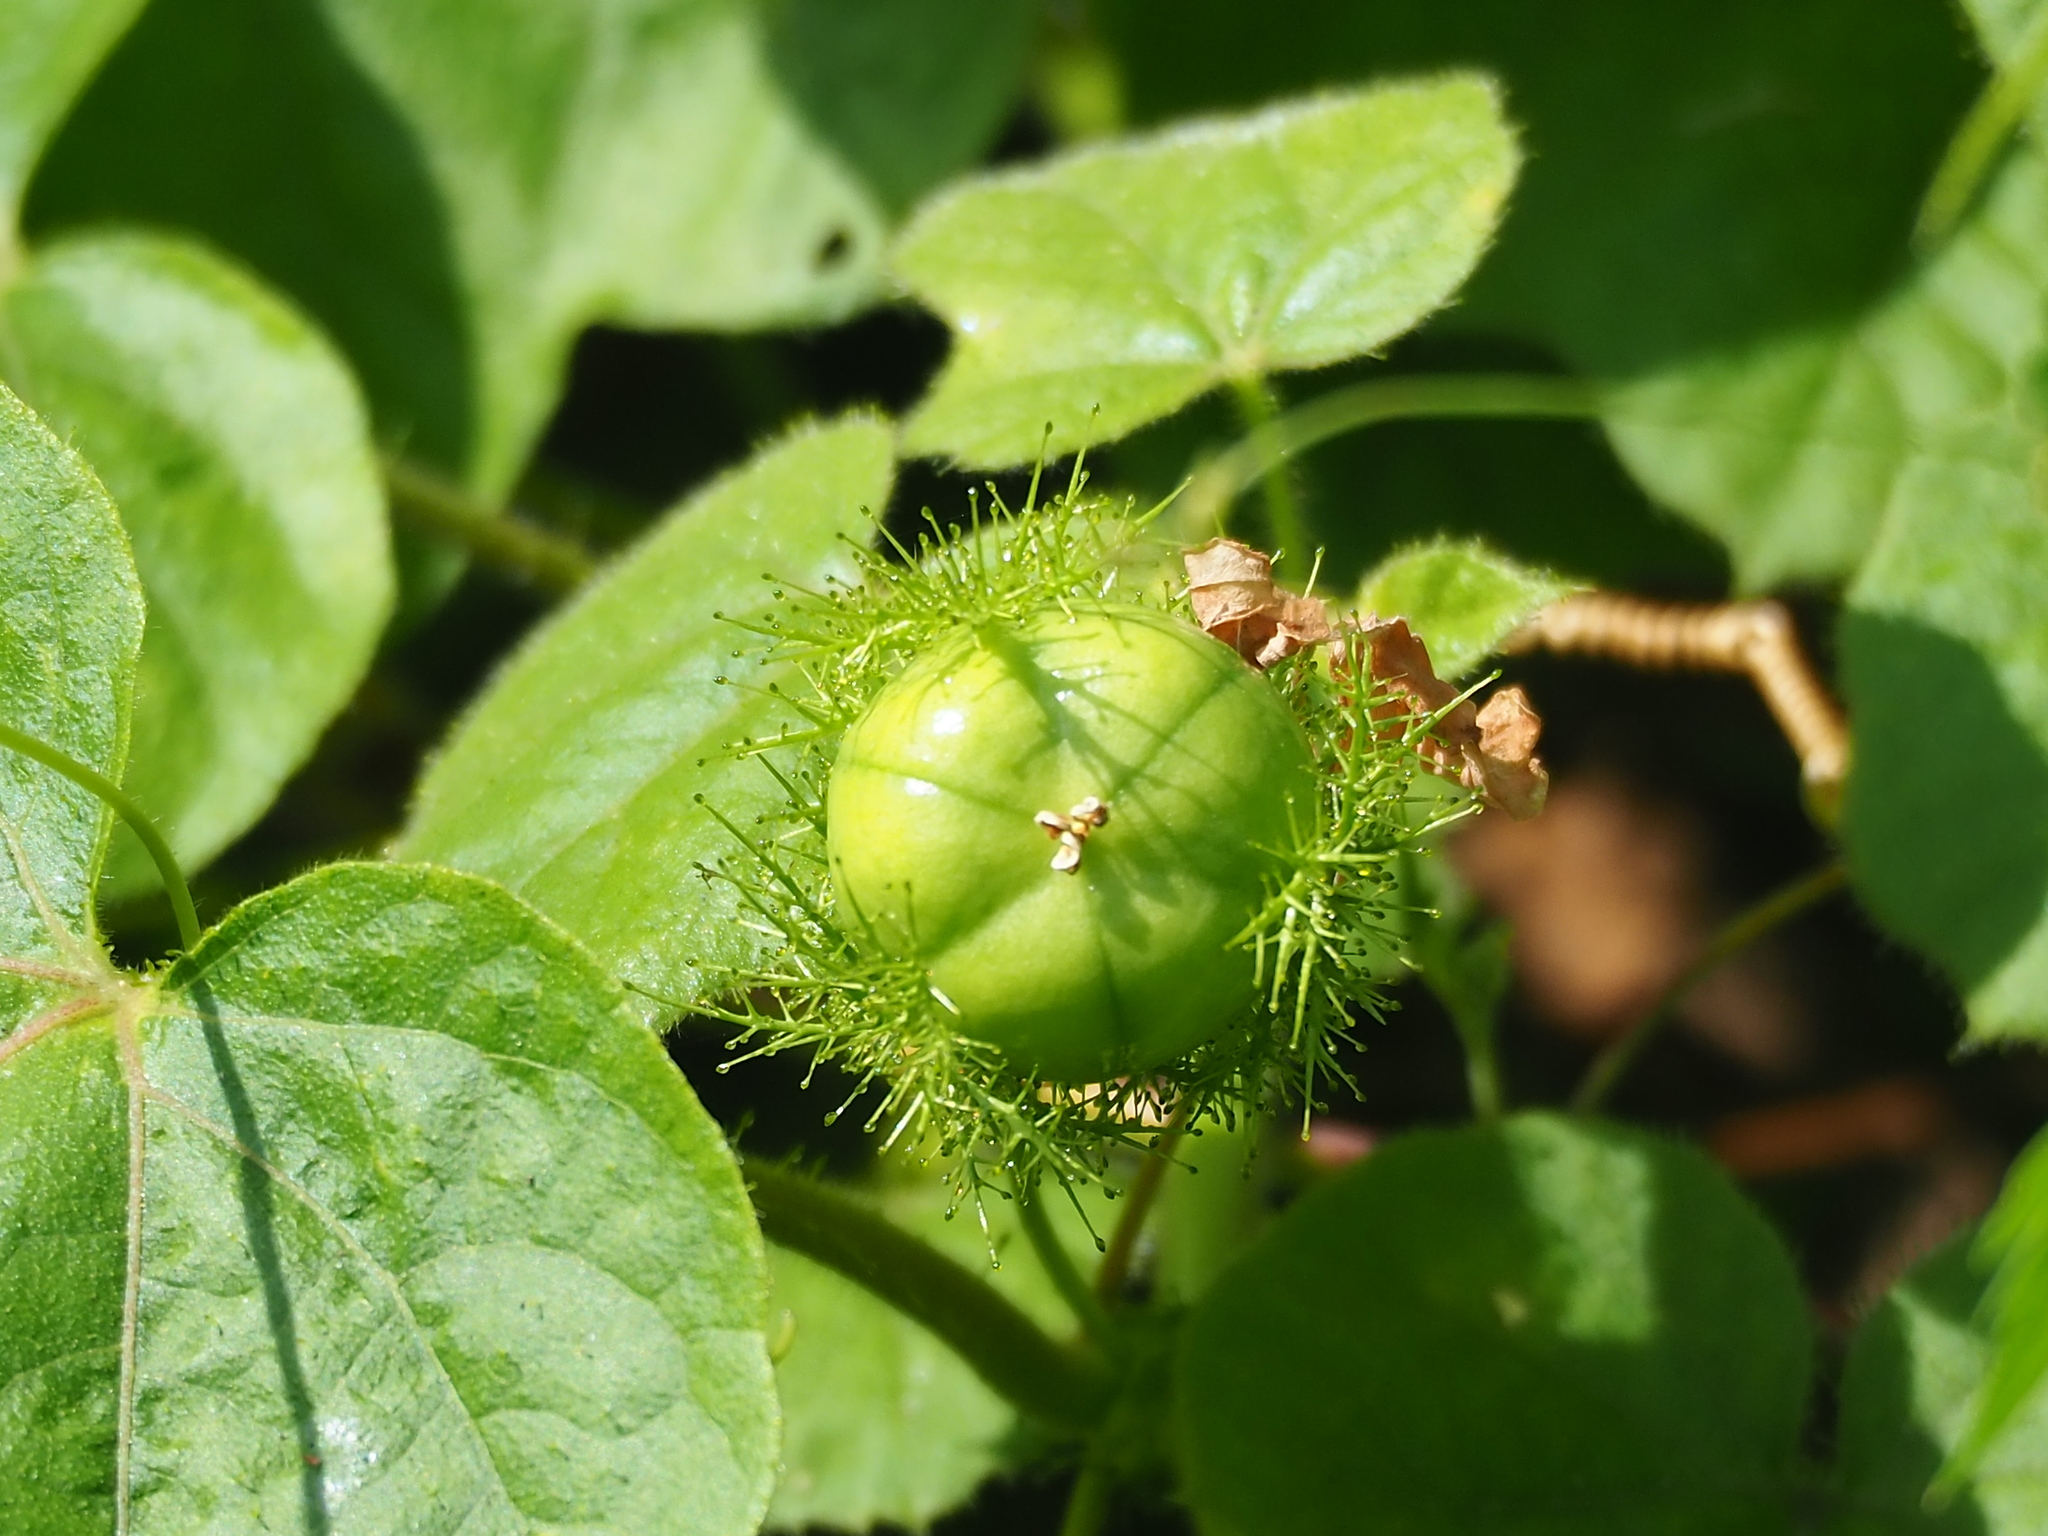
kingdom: Plantae
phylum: Tracheophyta
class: Magnoliopsida
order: Malpighiales
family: Passifloraceae
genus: Passiflora
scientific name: Passiflora vesicaria
